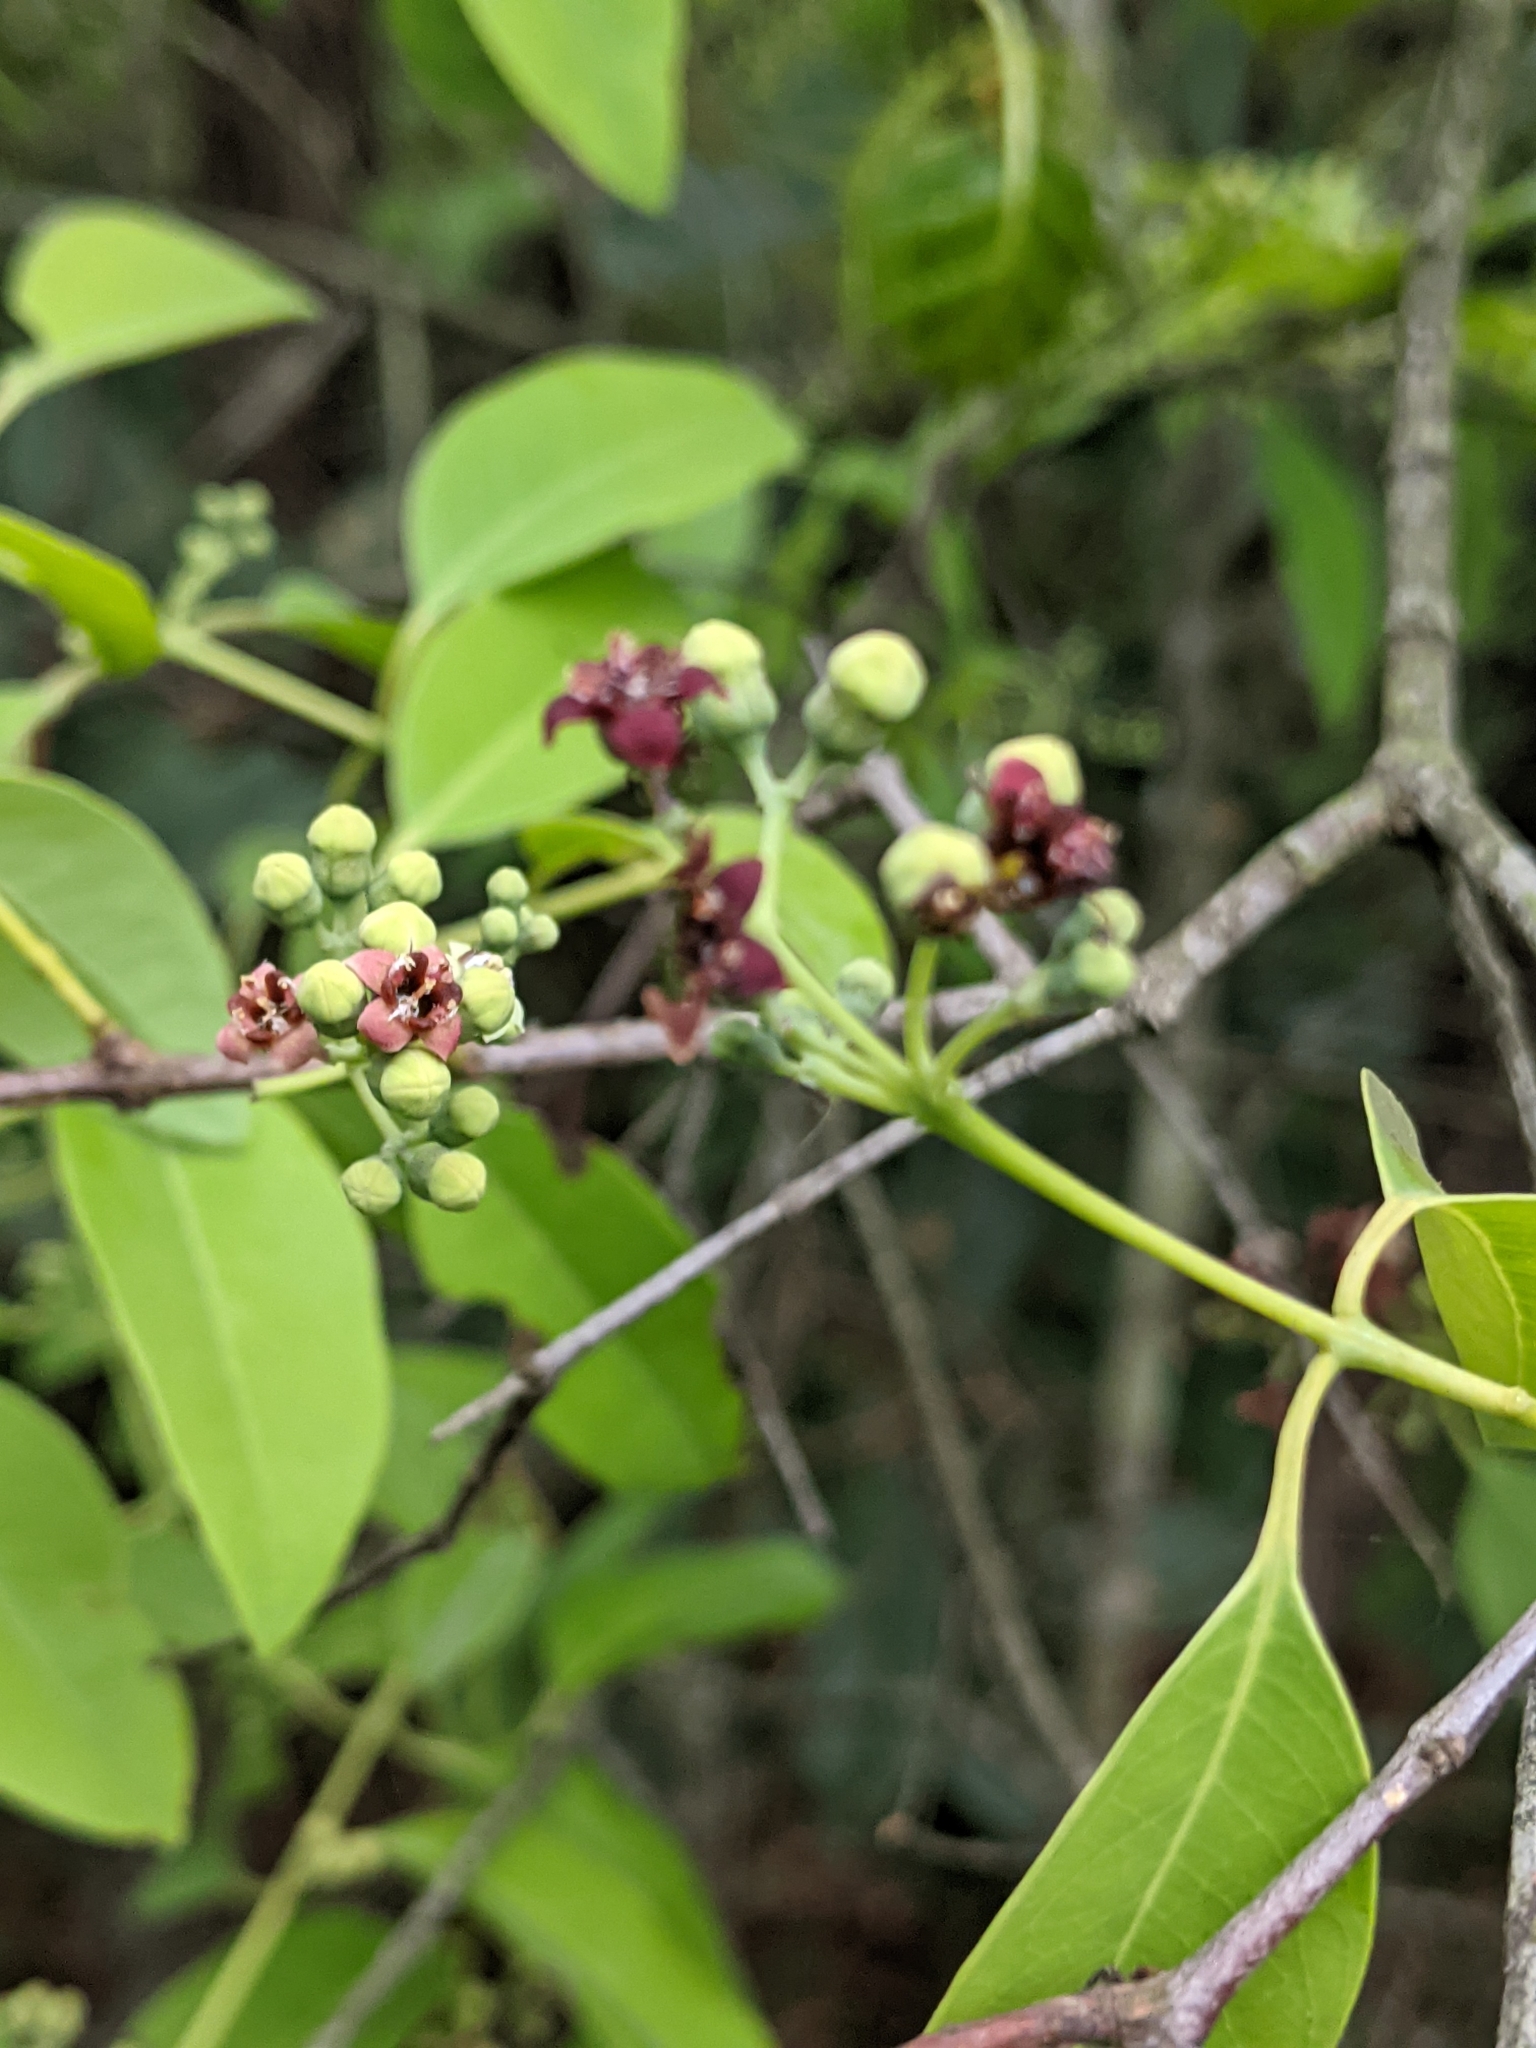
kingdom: Plantae
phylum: Tracheophyta
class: Magnoliopsida
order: Santalales
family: Santalaceae
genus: Santalum
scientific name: Santalum album
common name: Indian sandalwood
